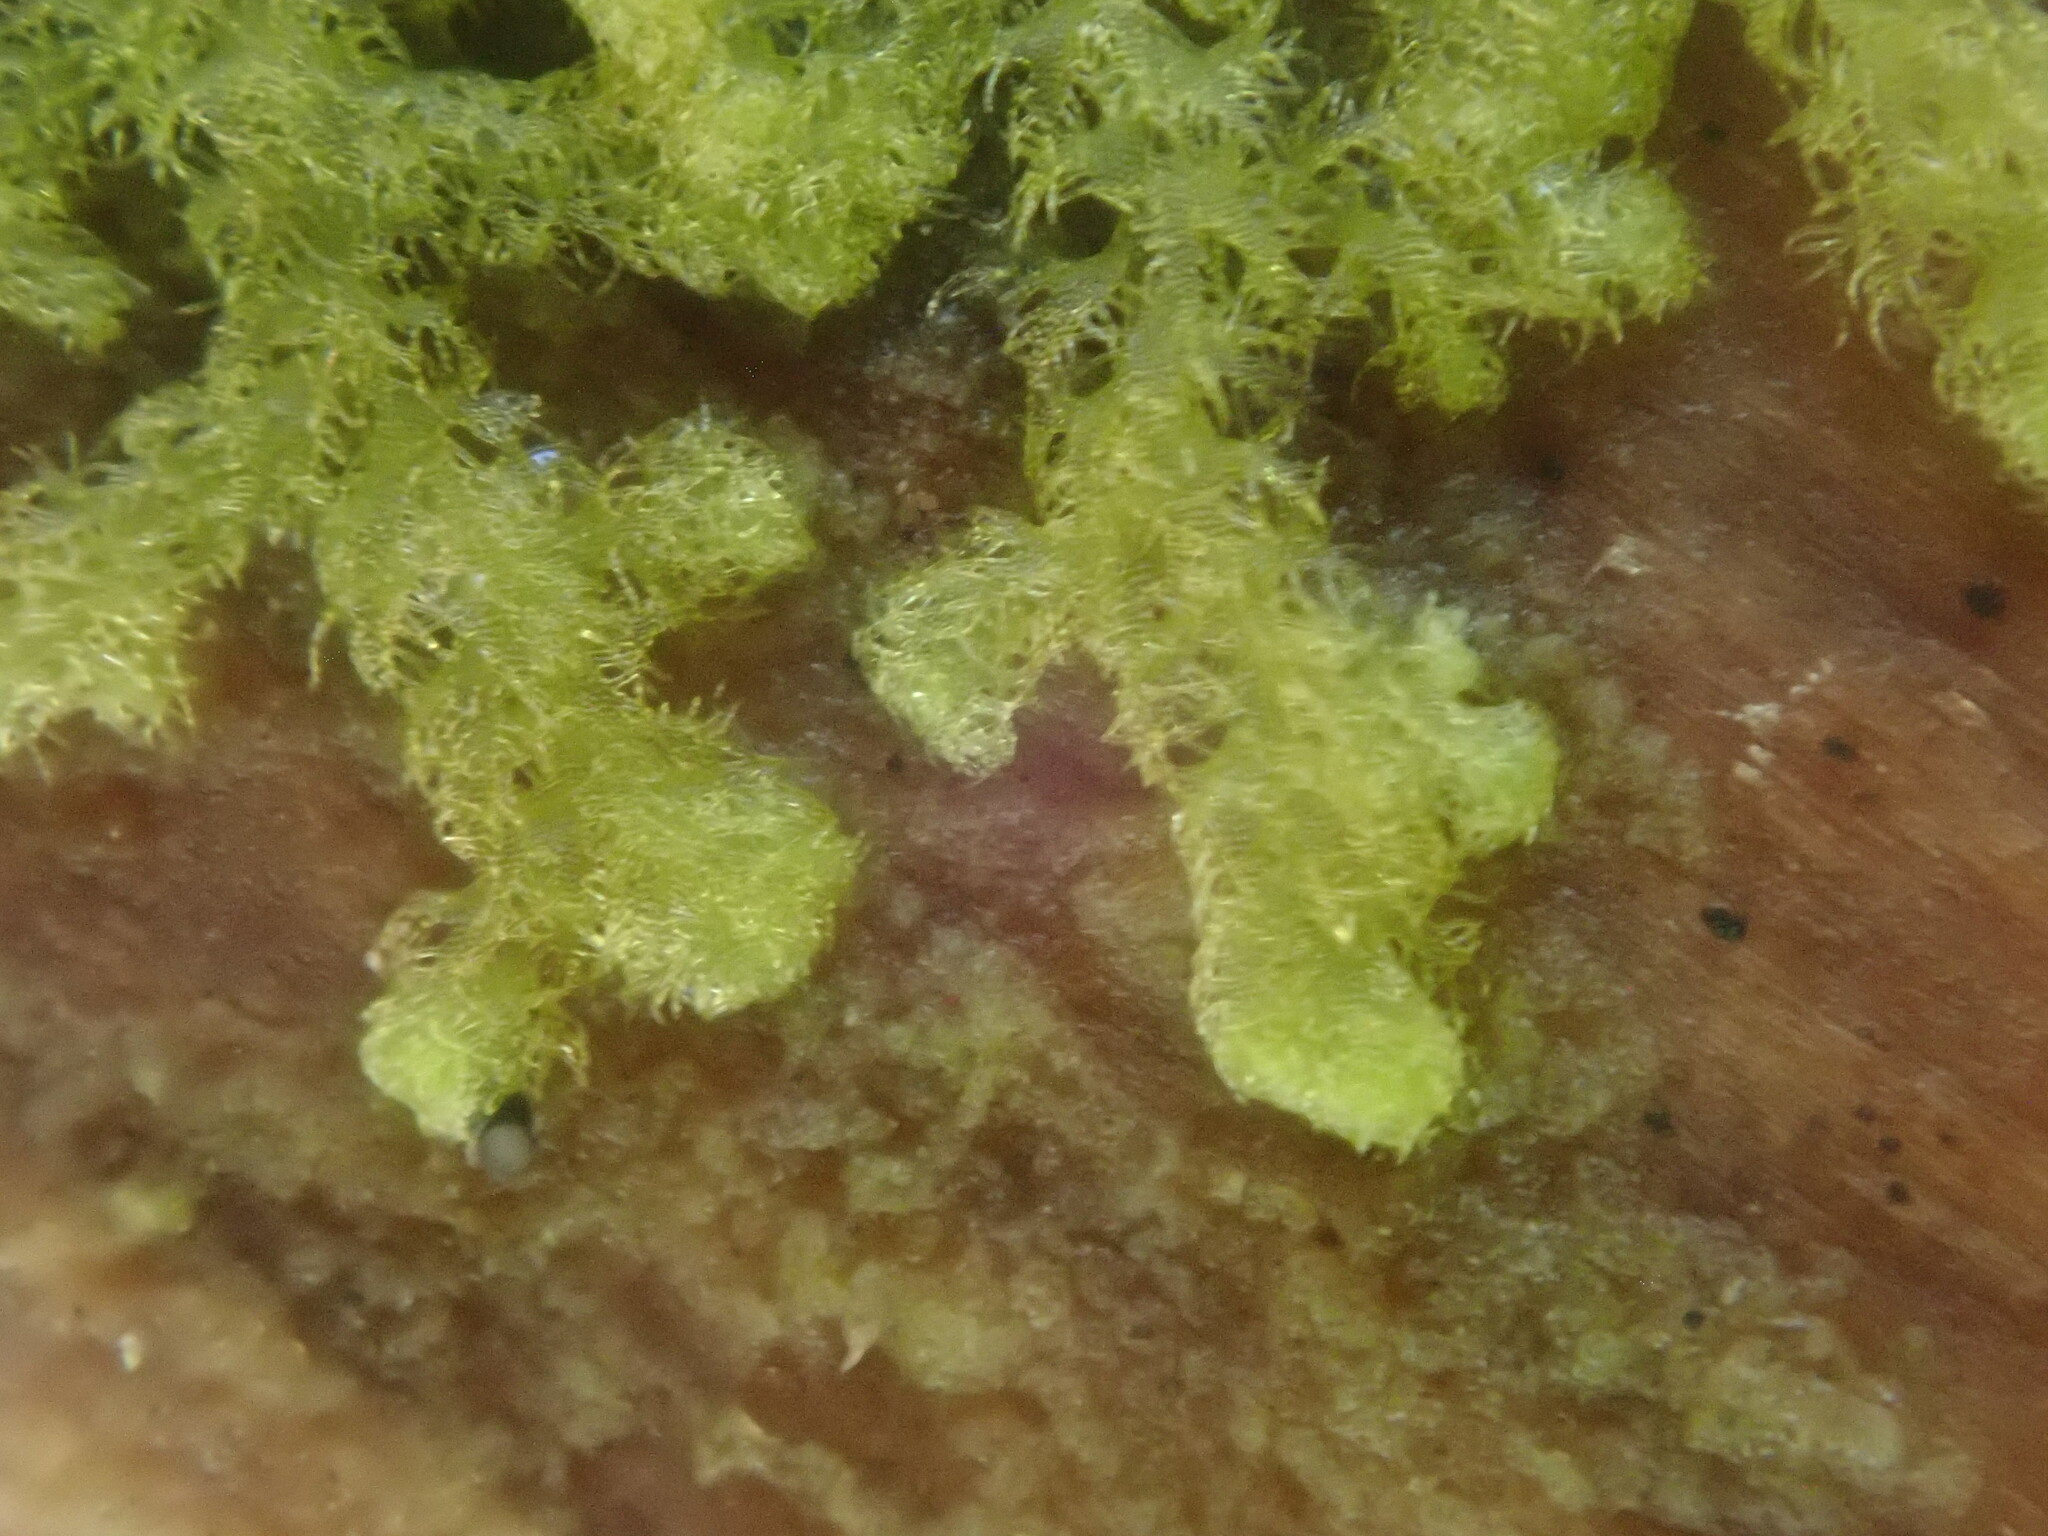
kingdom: Plantae
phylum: Marchantiophyta
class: Jungermanniopsida
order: Ptilidiales
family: Ptilidiaceae
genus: Ptilidium
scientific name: Ptilidium pulcherrimum
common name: Tree fringewort
